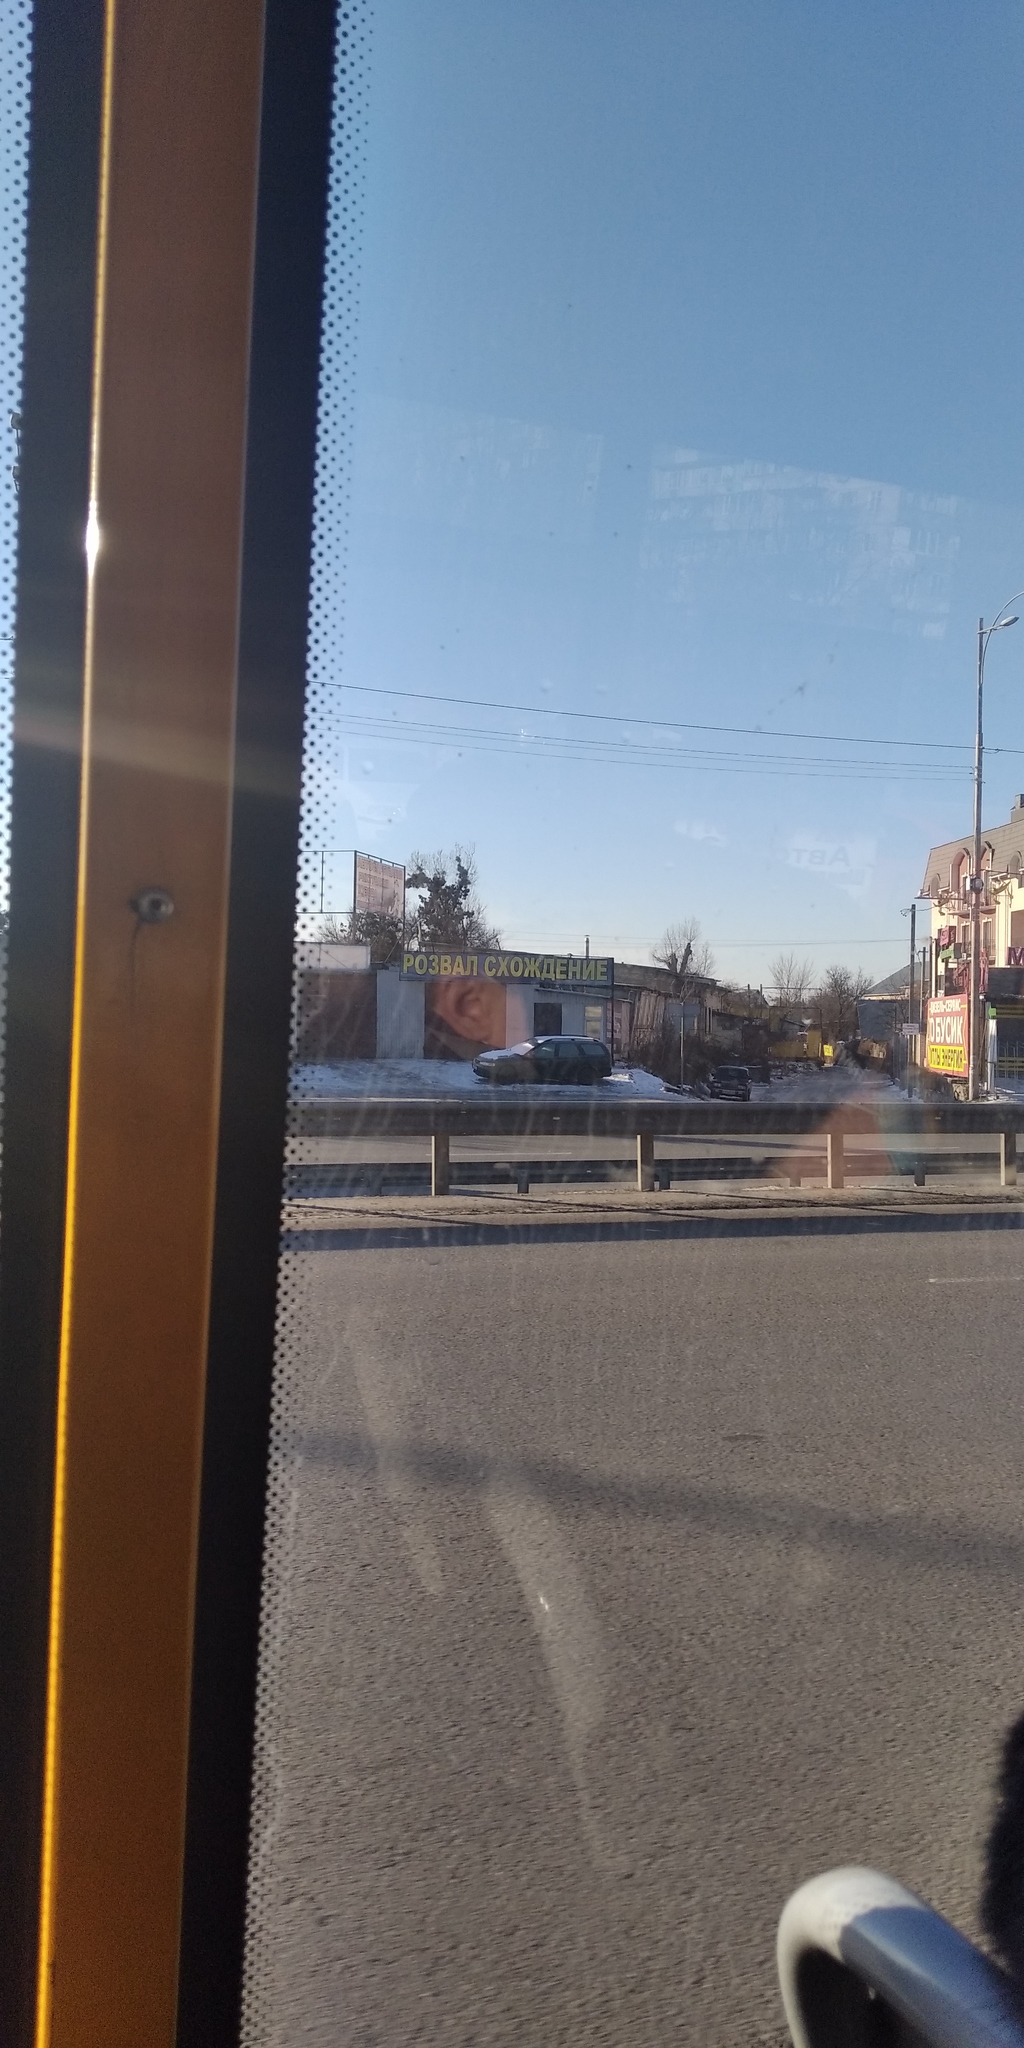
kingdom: Plantae
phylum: Tracheophyta
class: Magnoliopsida
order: Santalales
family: Viscaceae
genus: Viscum
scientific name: Viscum album
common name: Mistletoe
